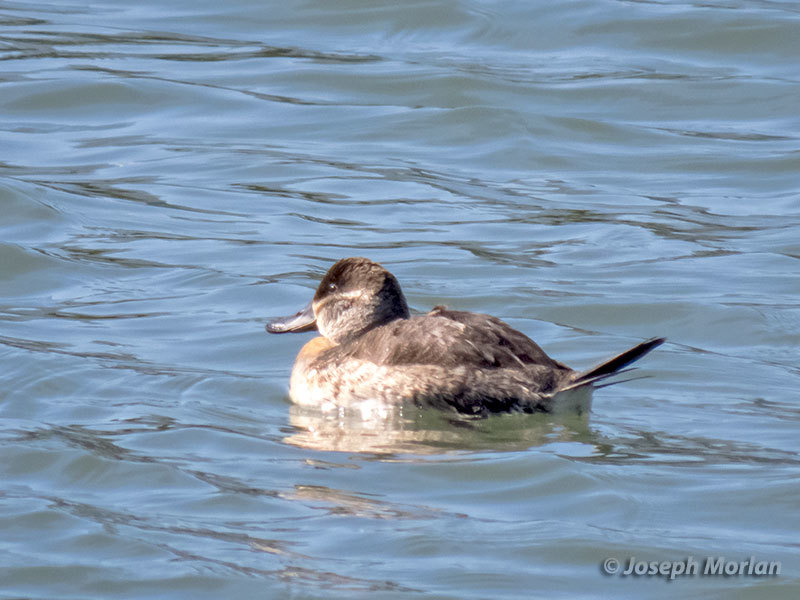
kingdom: Animalia
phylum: Chordata
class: Aves
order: Anseriformes
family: Anatidae
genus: Oxyura
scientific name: Oxyura jamaicensis
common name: Ruddy duck
